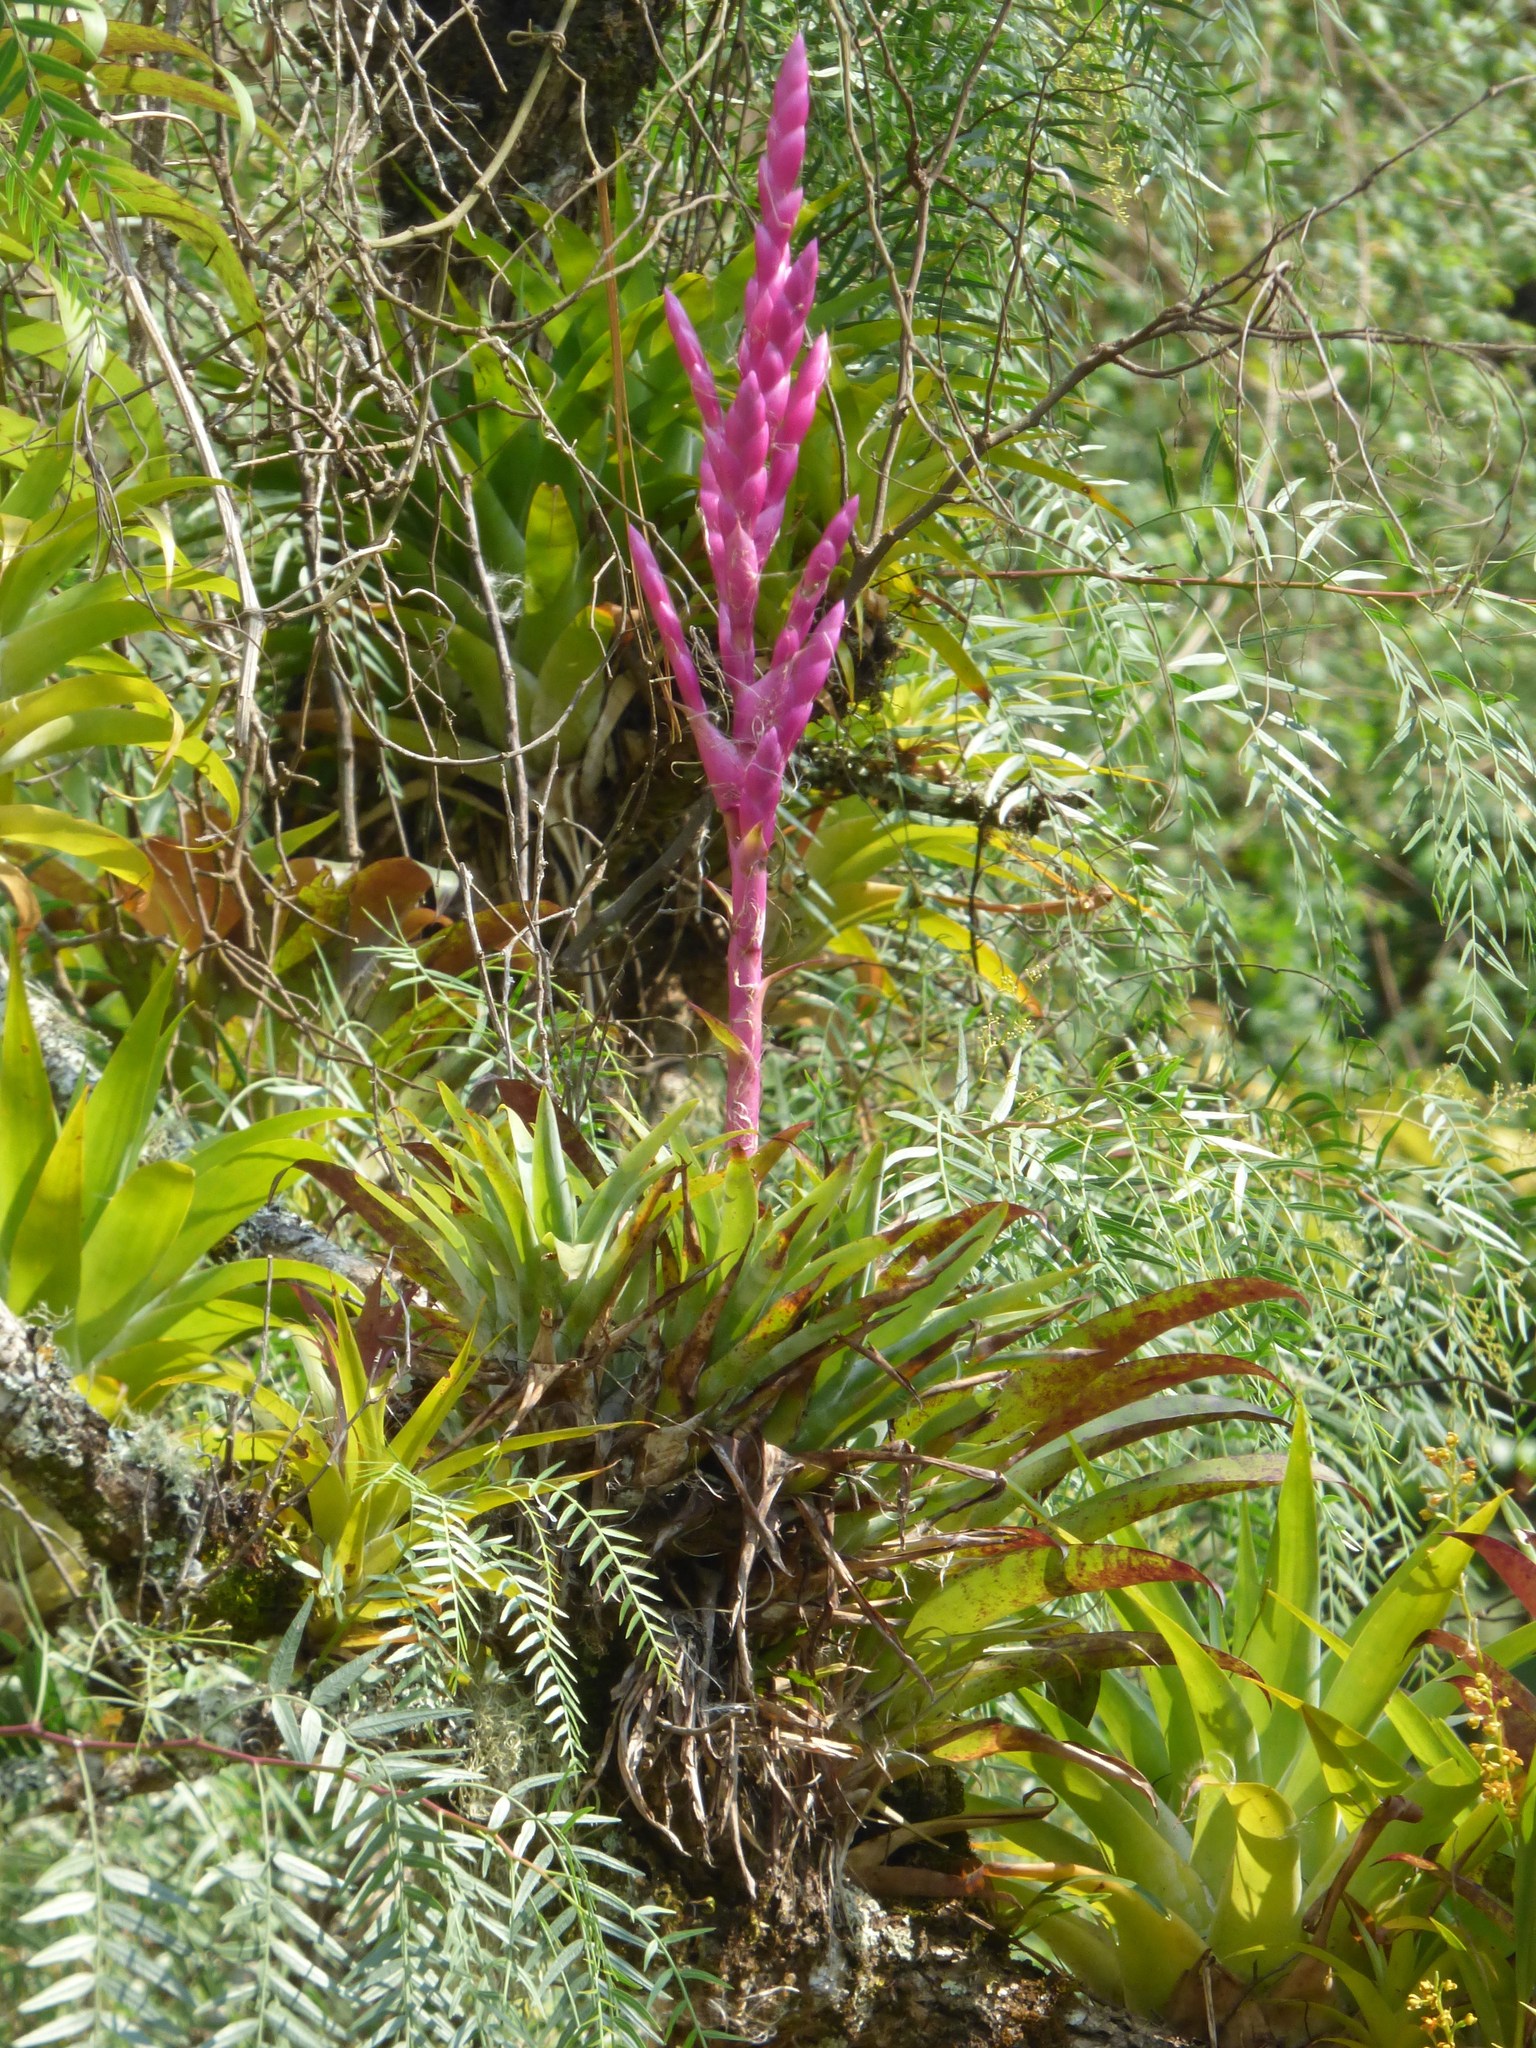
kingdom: Plantae
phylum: Tracheophyta
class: Liliopsida
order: Poales
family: Bromeliaceae
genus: Tillandsia
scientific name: Tillandsia lucida
